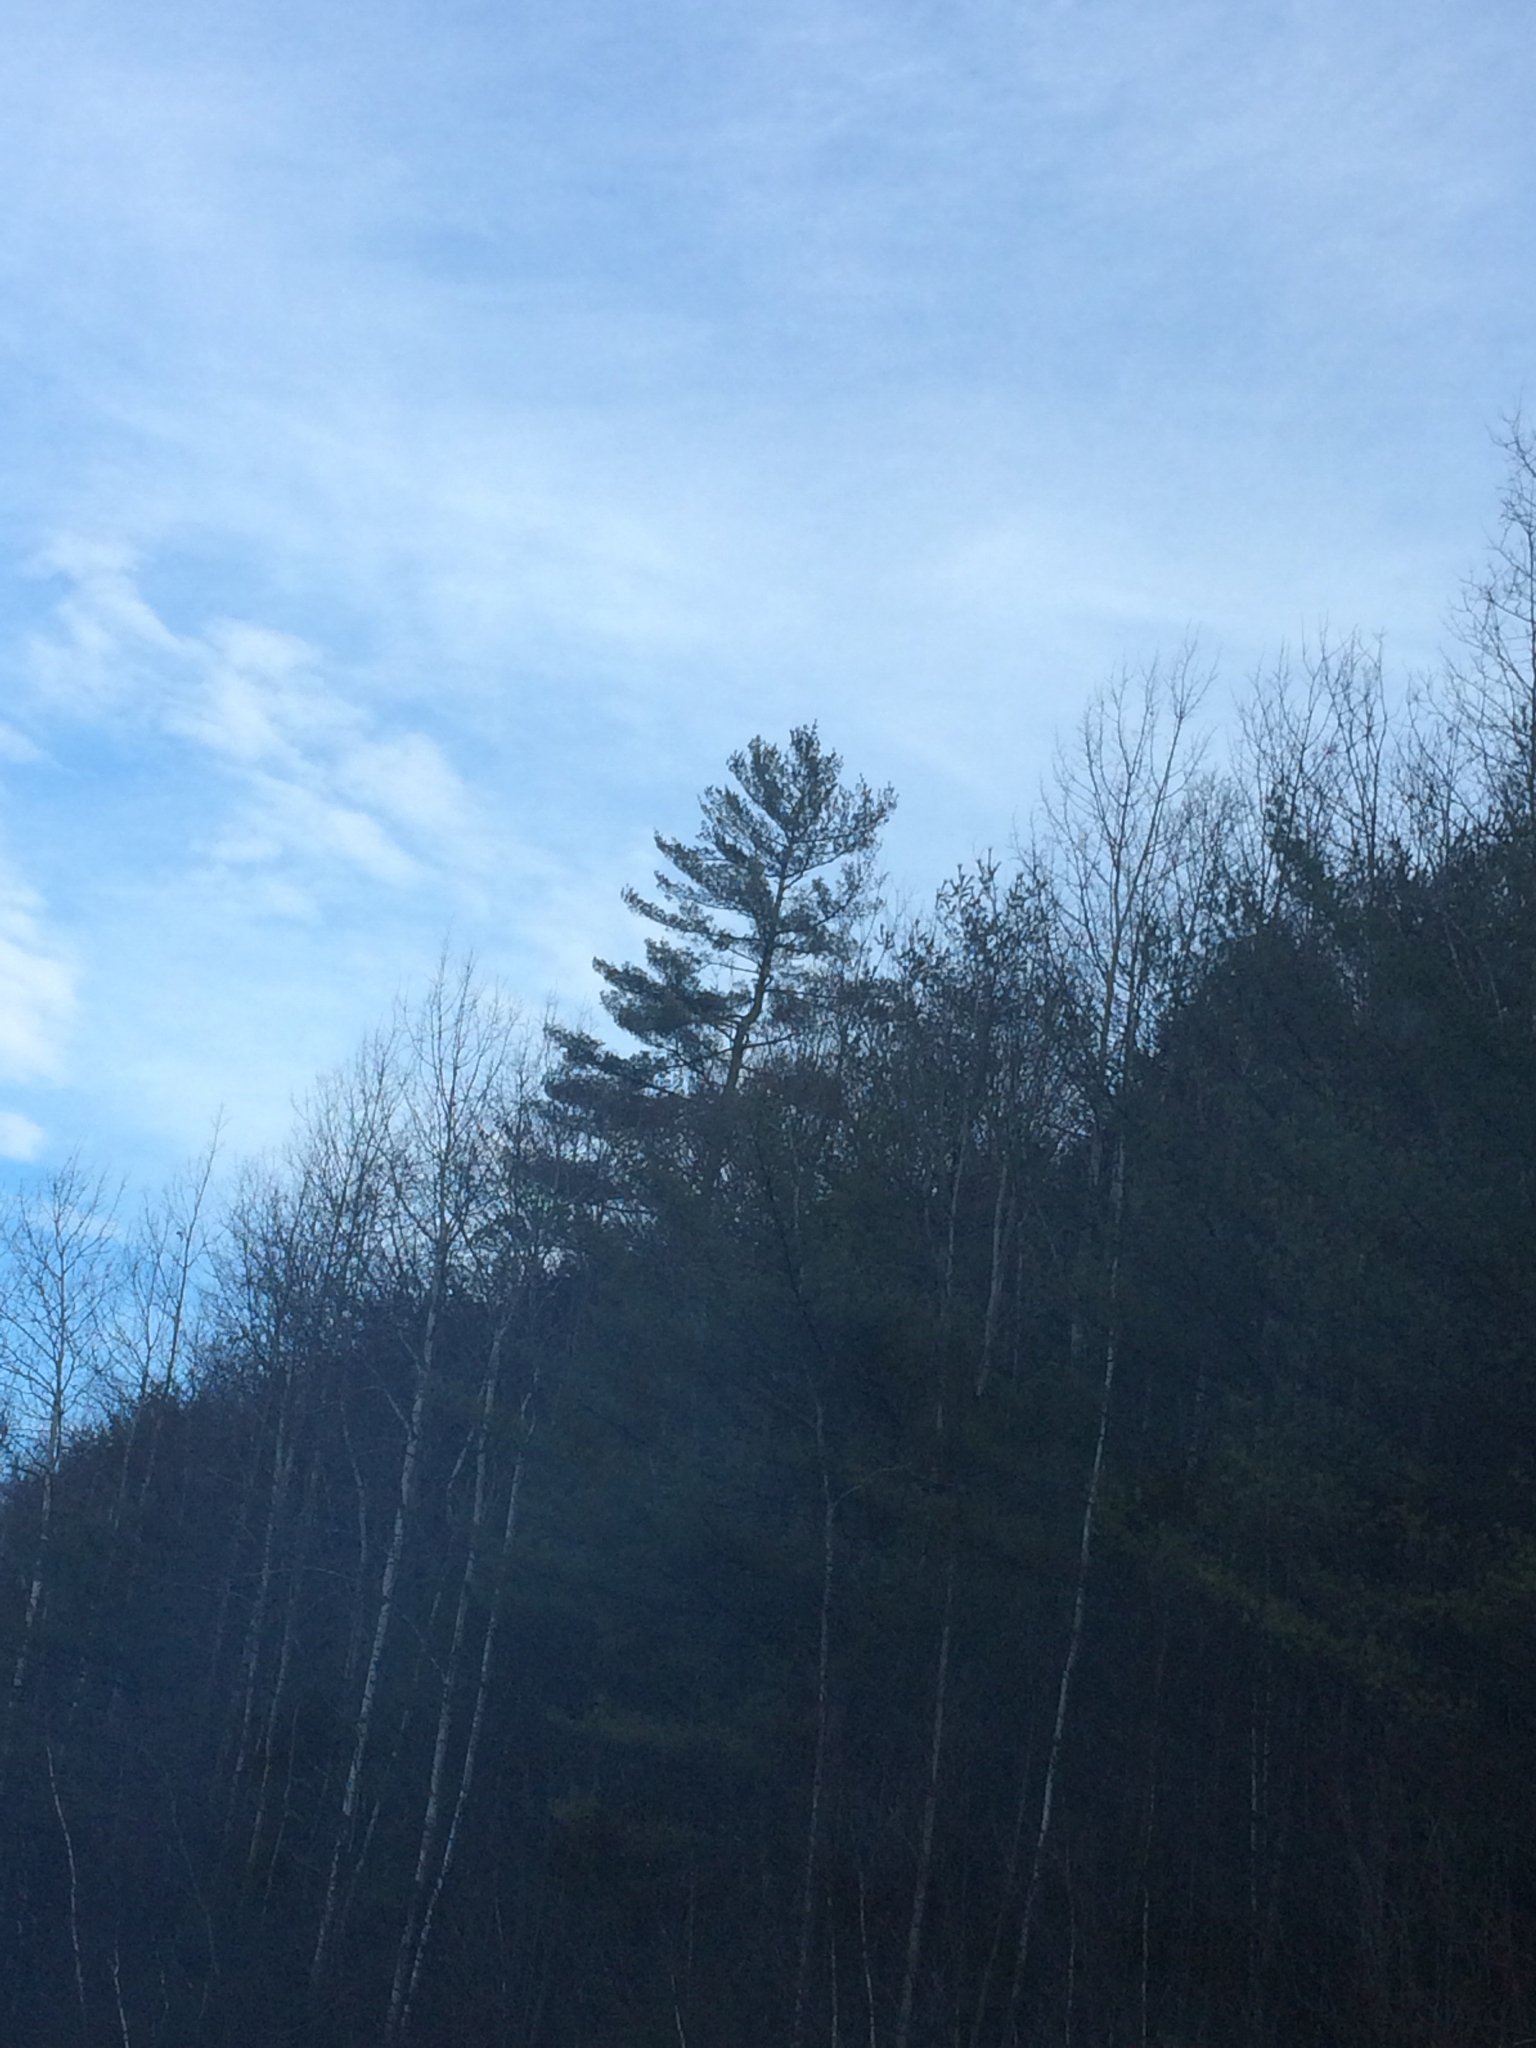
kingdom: Plantae
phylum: Tracheophyta
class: Pinopsida
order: Pinales
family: Pinaceae
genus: Pinus
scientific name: Pinus strobus
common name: Weymouth pine
